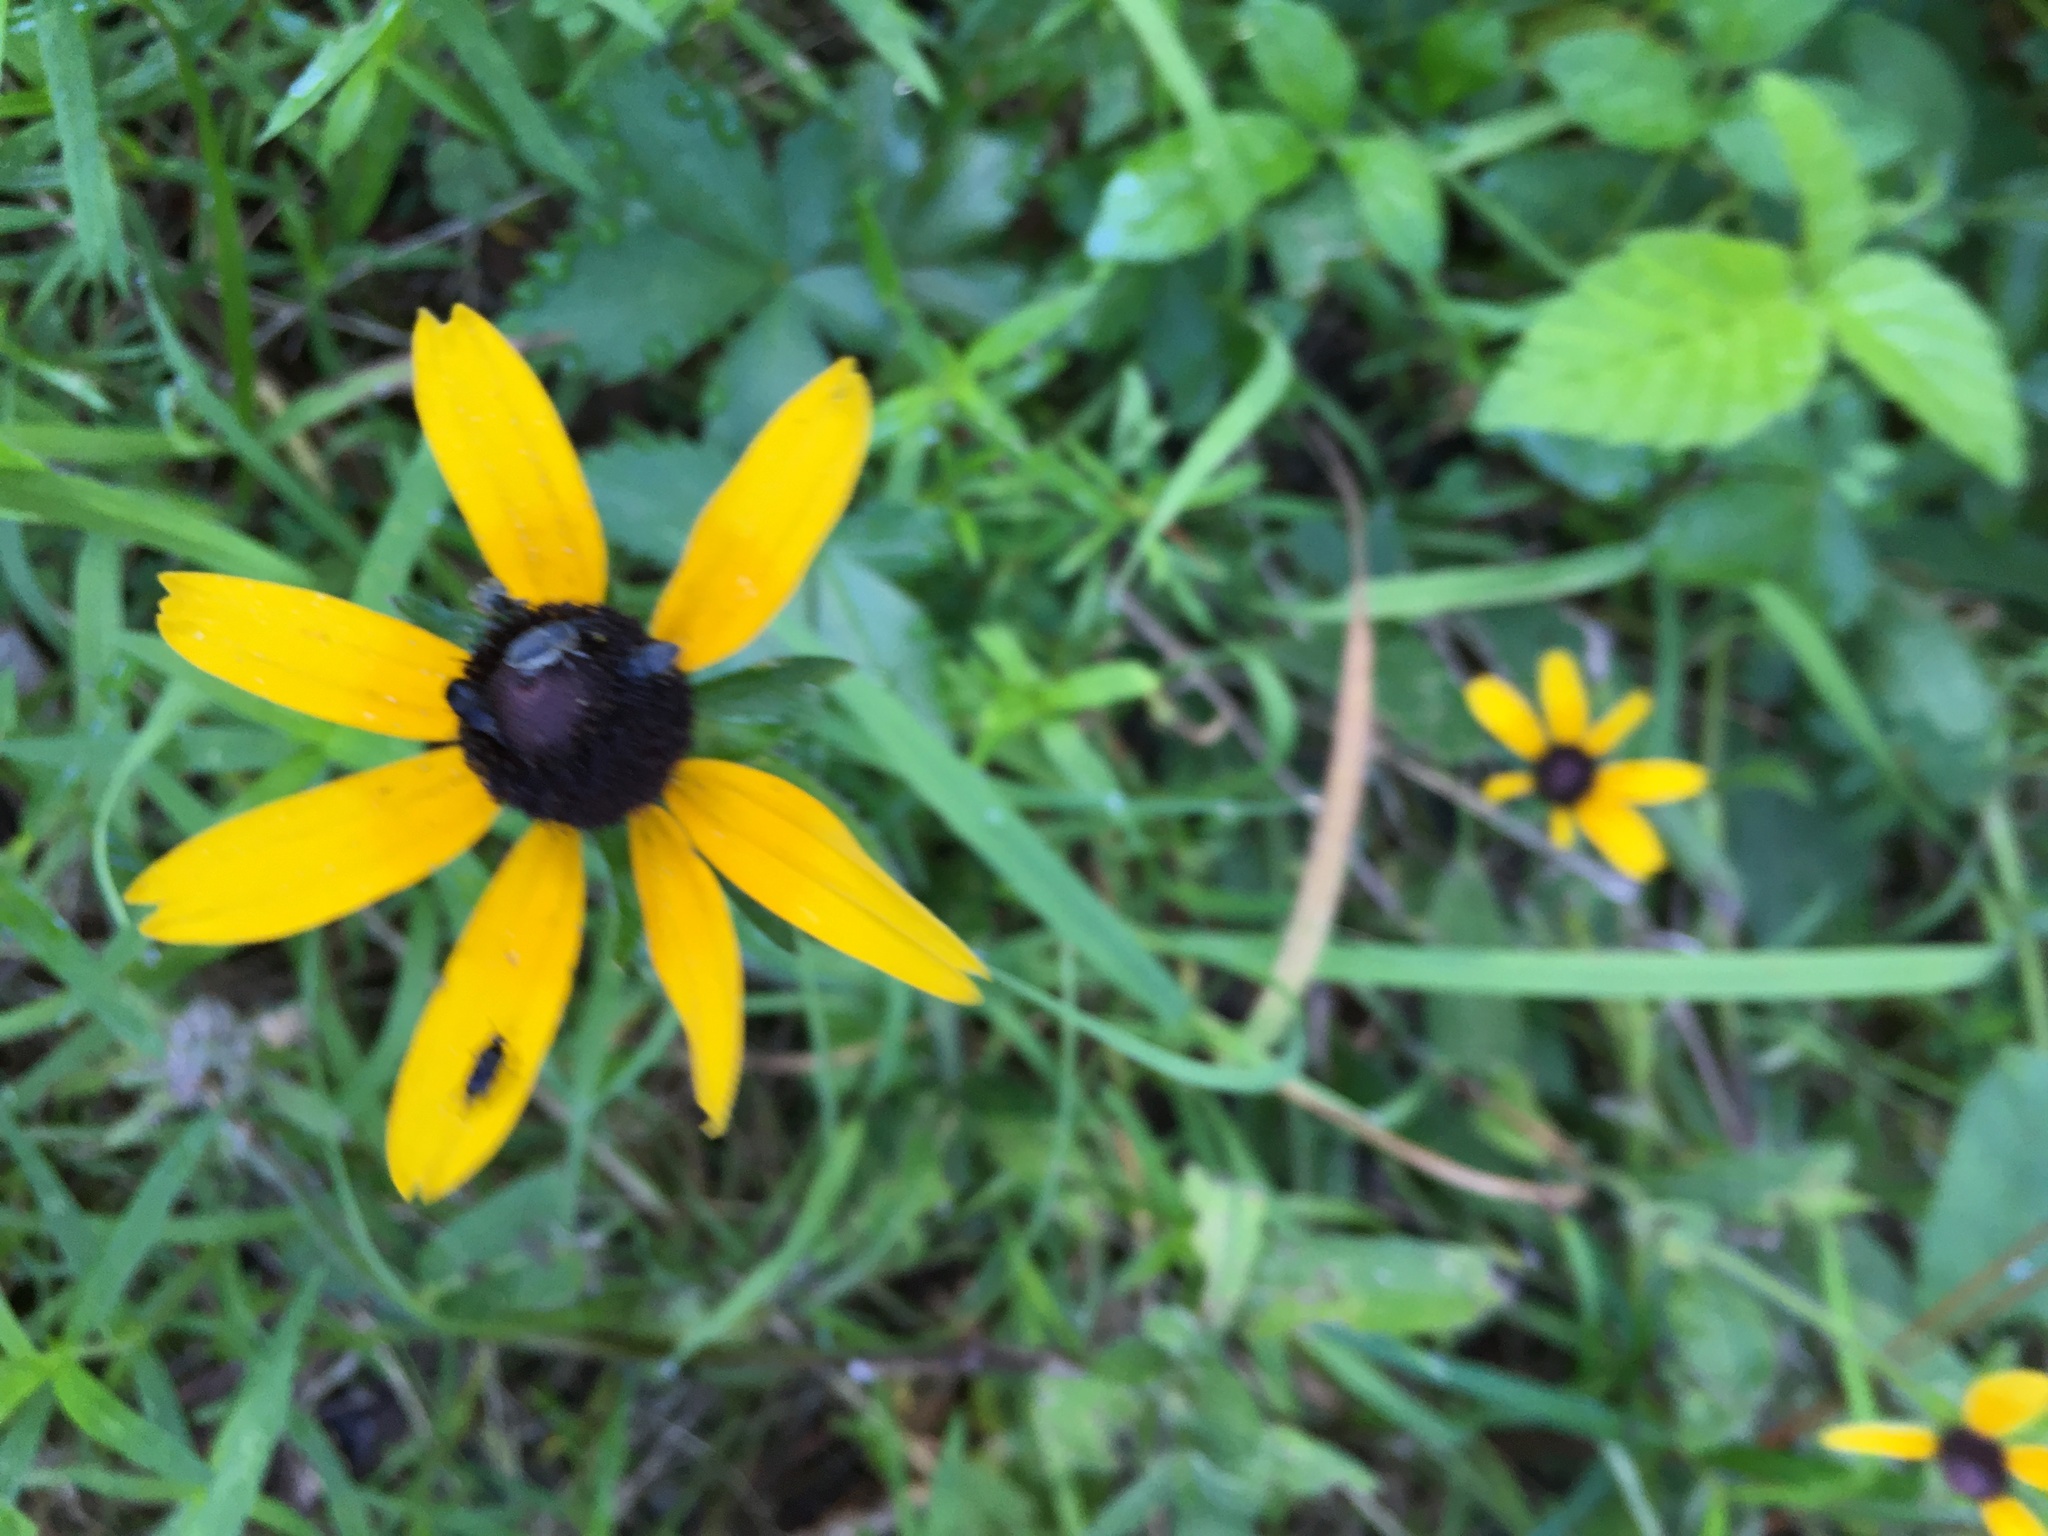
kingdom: Plantae
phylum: Tracheophyta
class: Magnoliopsida
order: Asterales
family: Asteraceae
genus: Rudbeckia
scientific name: Rudbeckia hirta
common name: Black-eyed-susan
